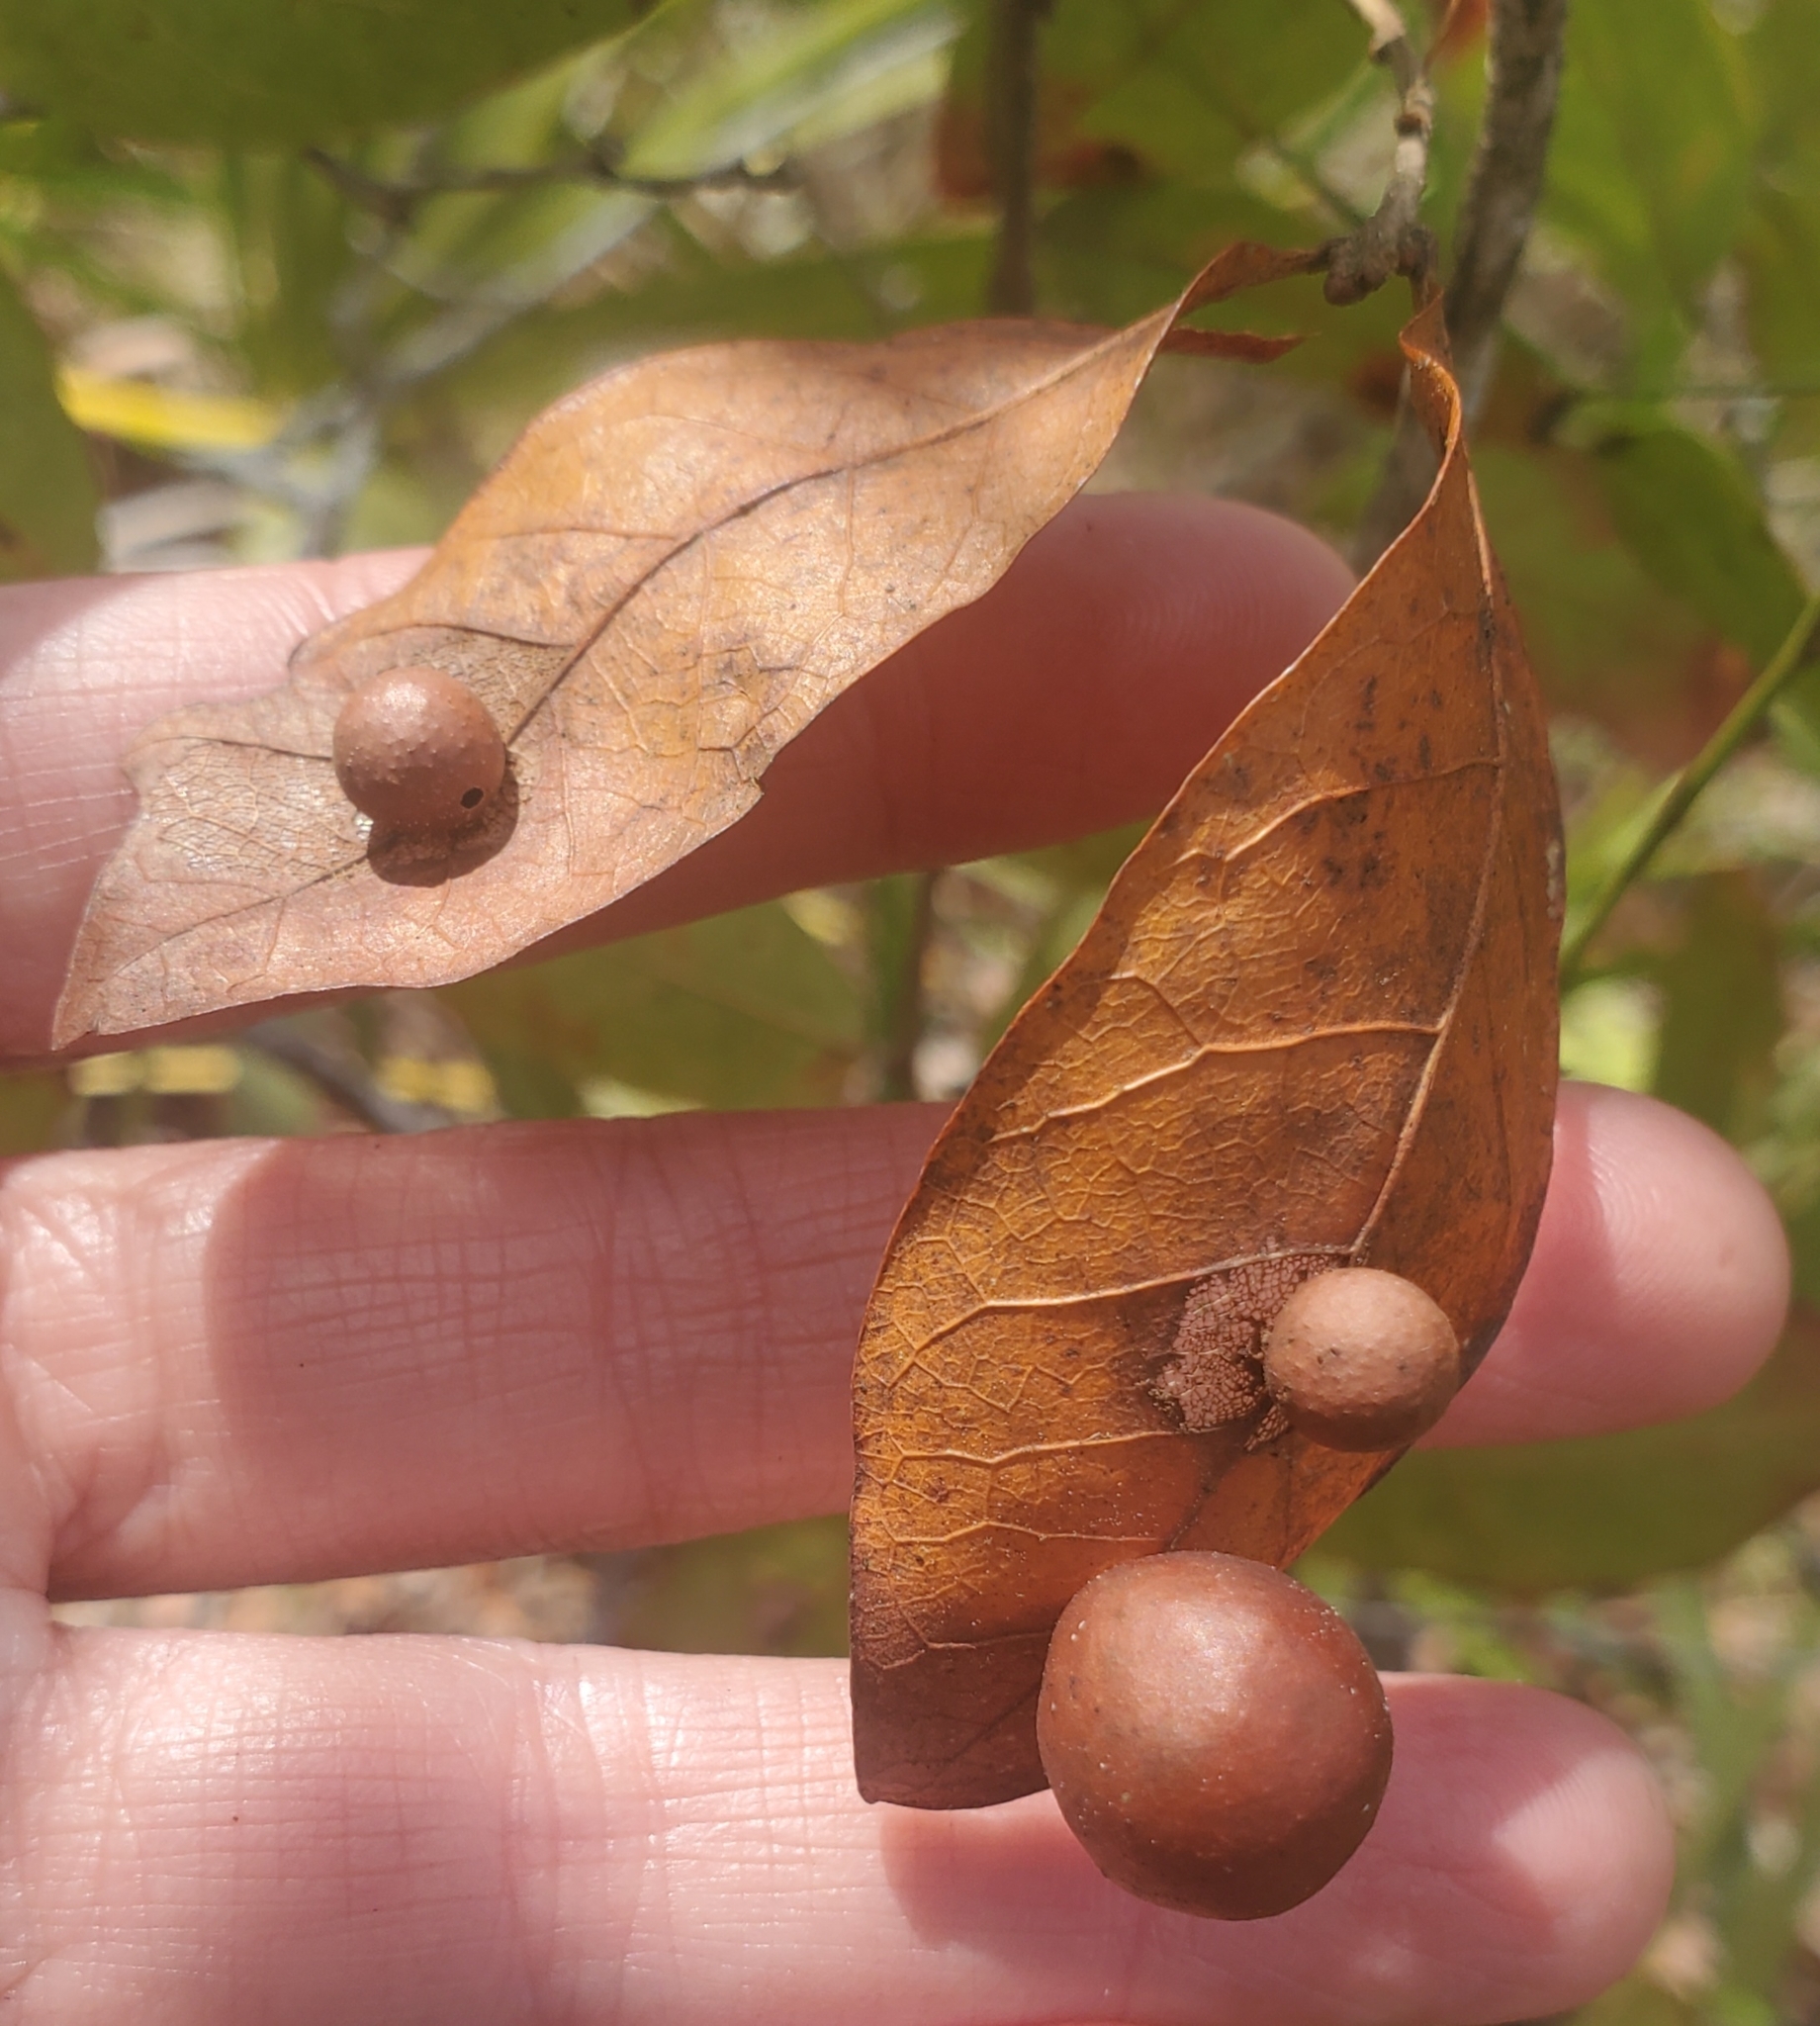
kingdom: Animalia
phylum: Arthropoda
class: Insecta
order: Hymenoptera
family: Cynipidae
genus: Trigonaspis
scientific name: Trigonaspis
